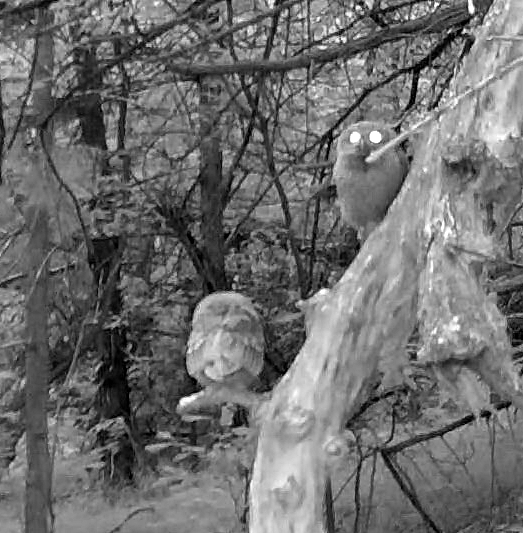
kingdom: Animalia
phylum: Chordata
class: Aves
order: Strigiformes
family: Strigidae
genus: Megascops
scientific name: Megascops asio
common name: Eastern screech-owl
